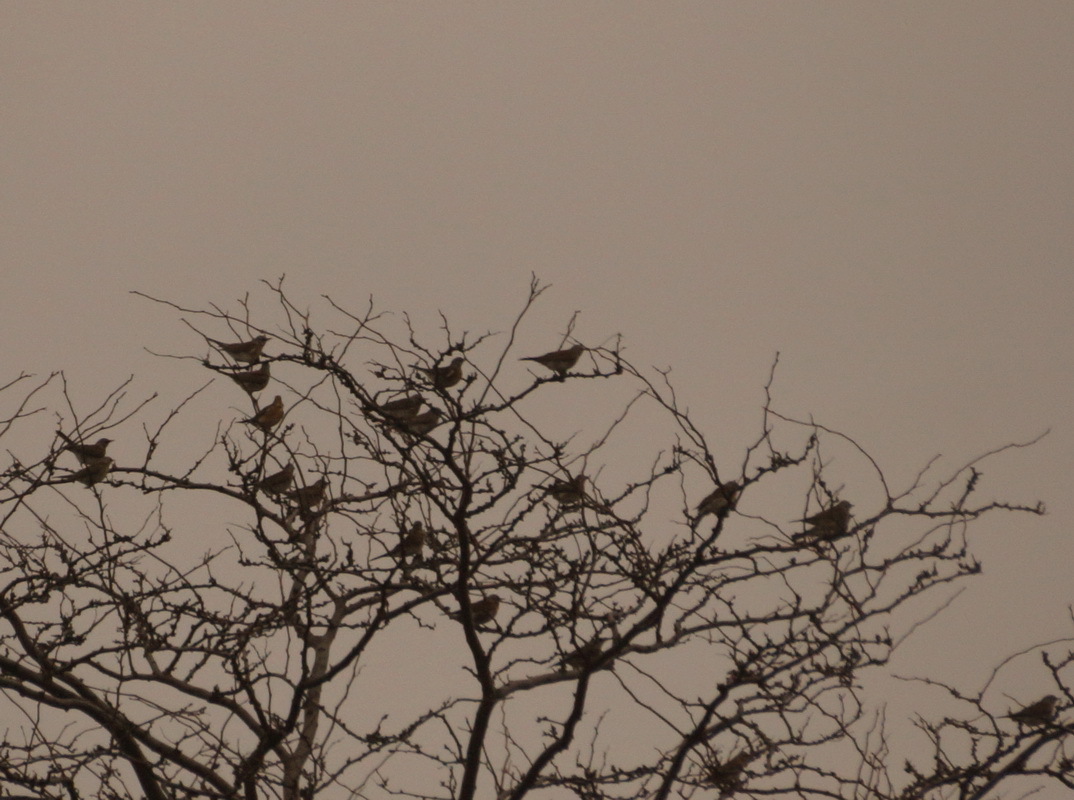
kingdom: Animalia
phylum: Chordata
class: Aves
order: Passeriformes
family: Turdidae
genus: Turdus
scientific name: Turdus pilaris
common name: Fieldfare
